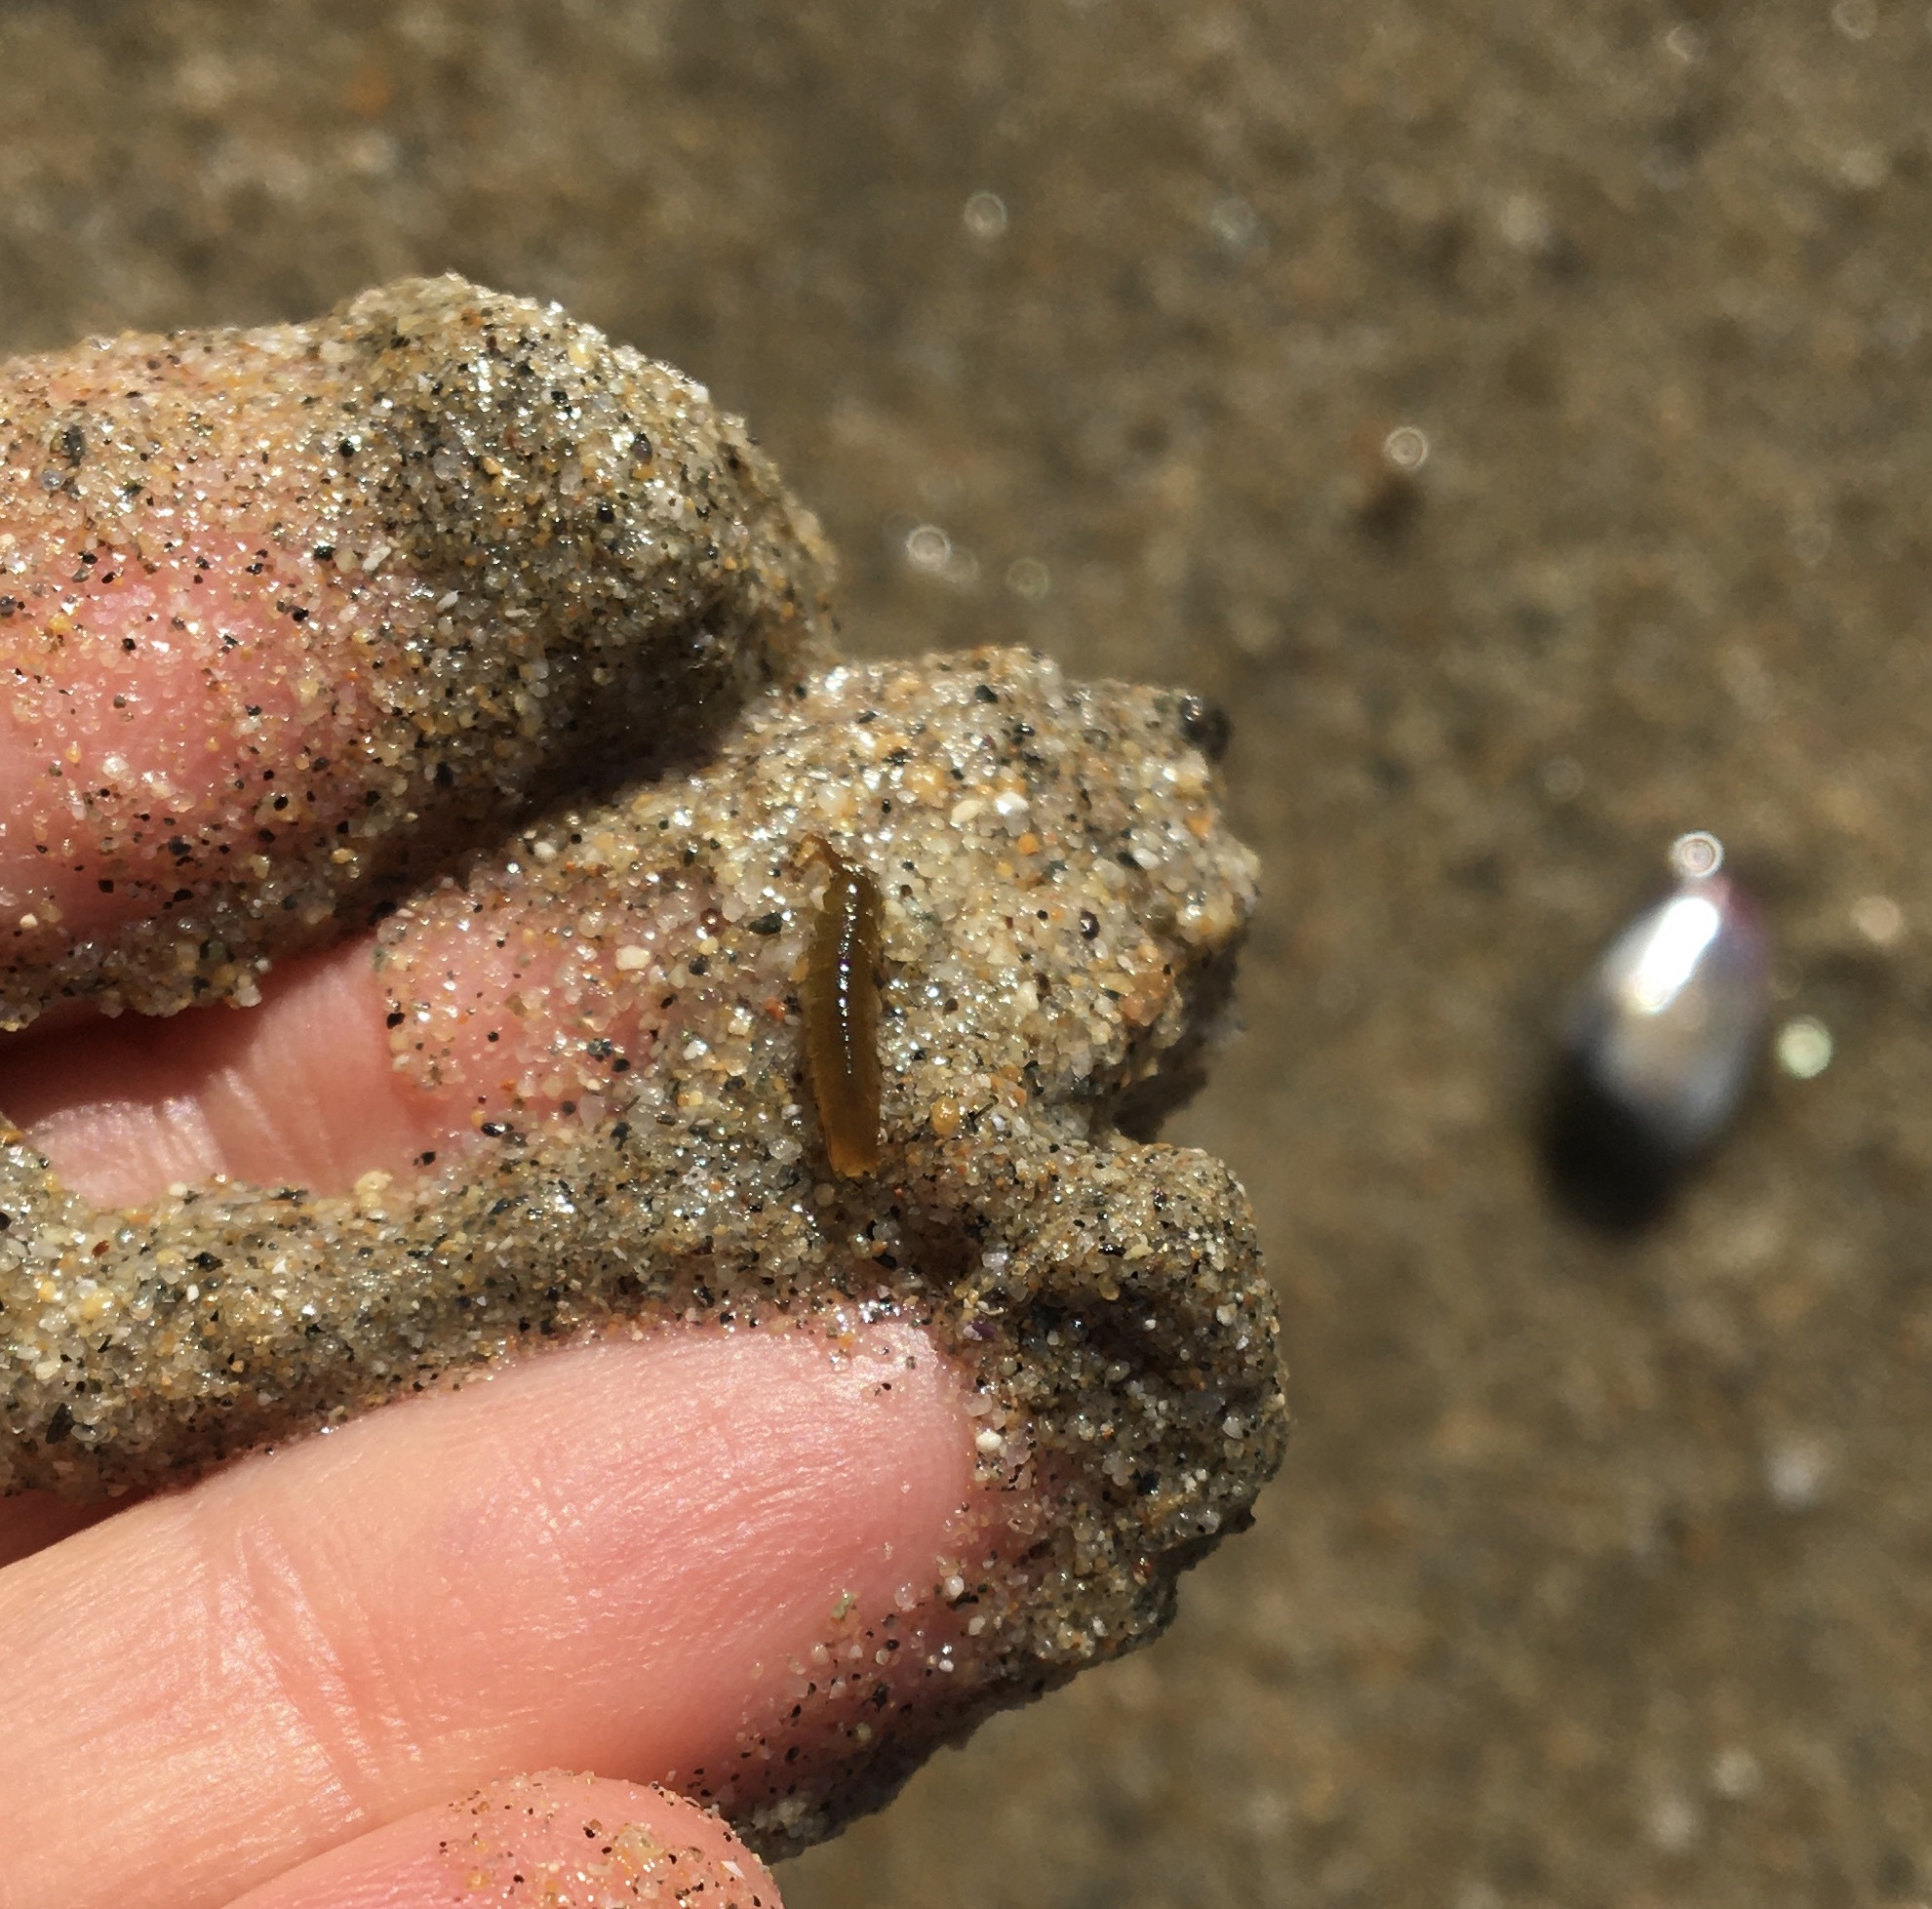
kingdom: Animalia
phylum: Arthropoda
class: Malacostraca
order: Isopoda
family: Idoteidae
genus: Pentidotea
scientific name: Pentidotea resecata
